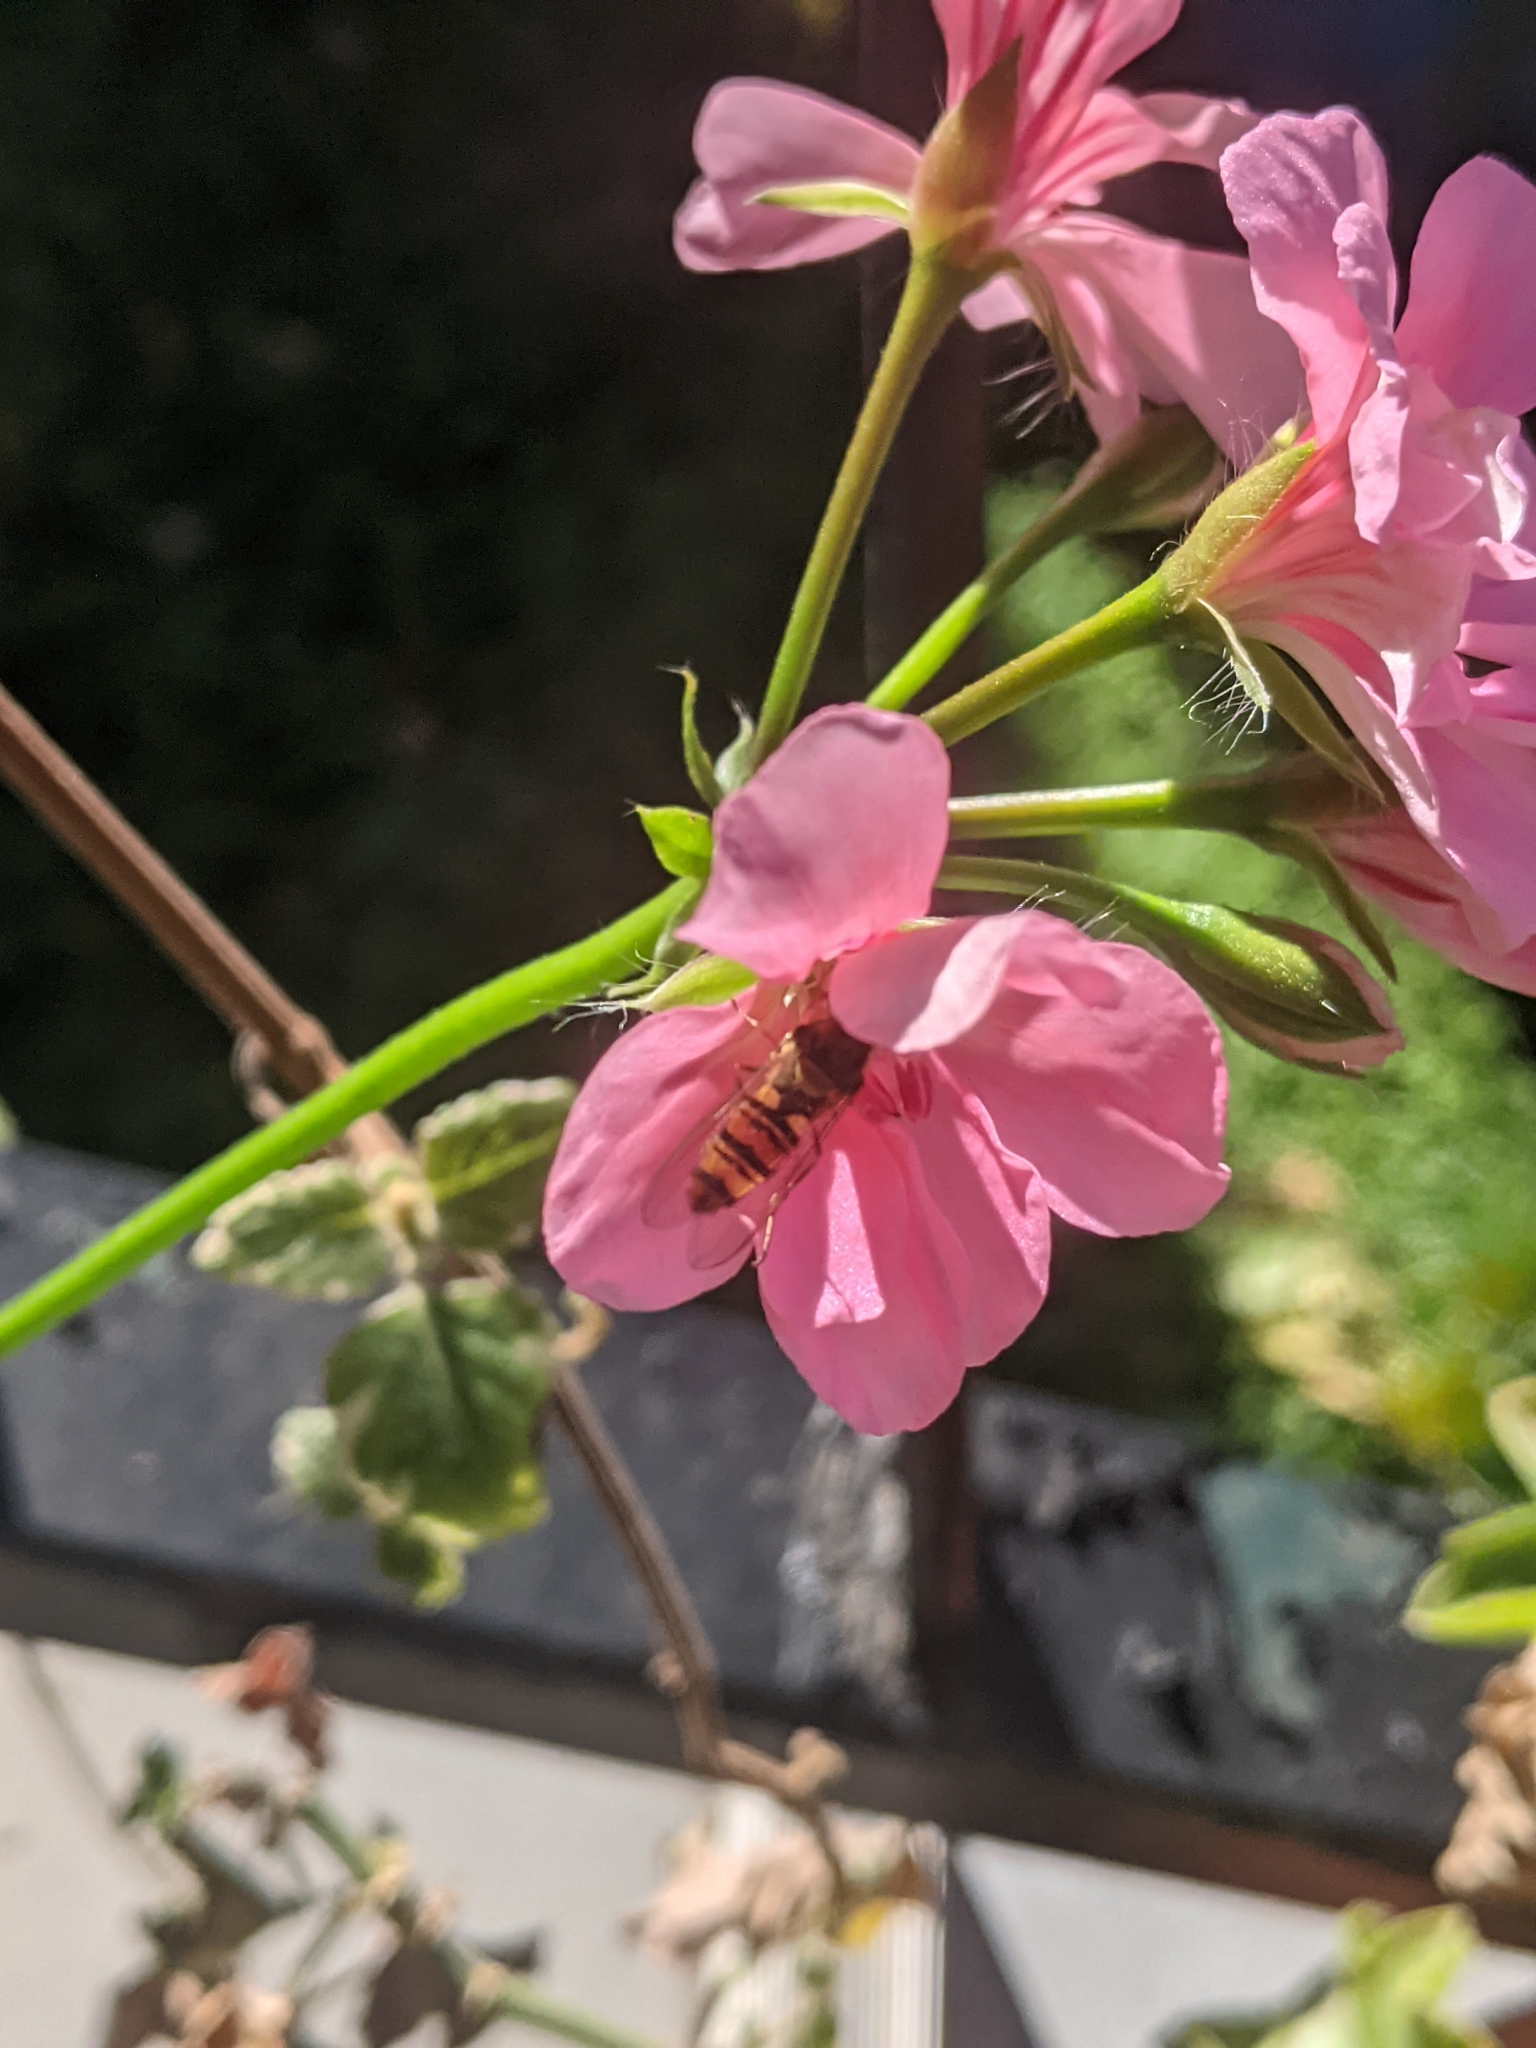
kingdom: Animalia
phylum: Arthropoda
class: Insecta
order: Diptera
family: Syrphidae
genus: Episyrphus
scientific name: Episyrphus balteatus
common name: Marmalade hoverfly
